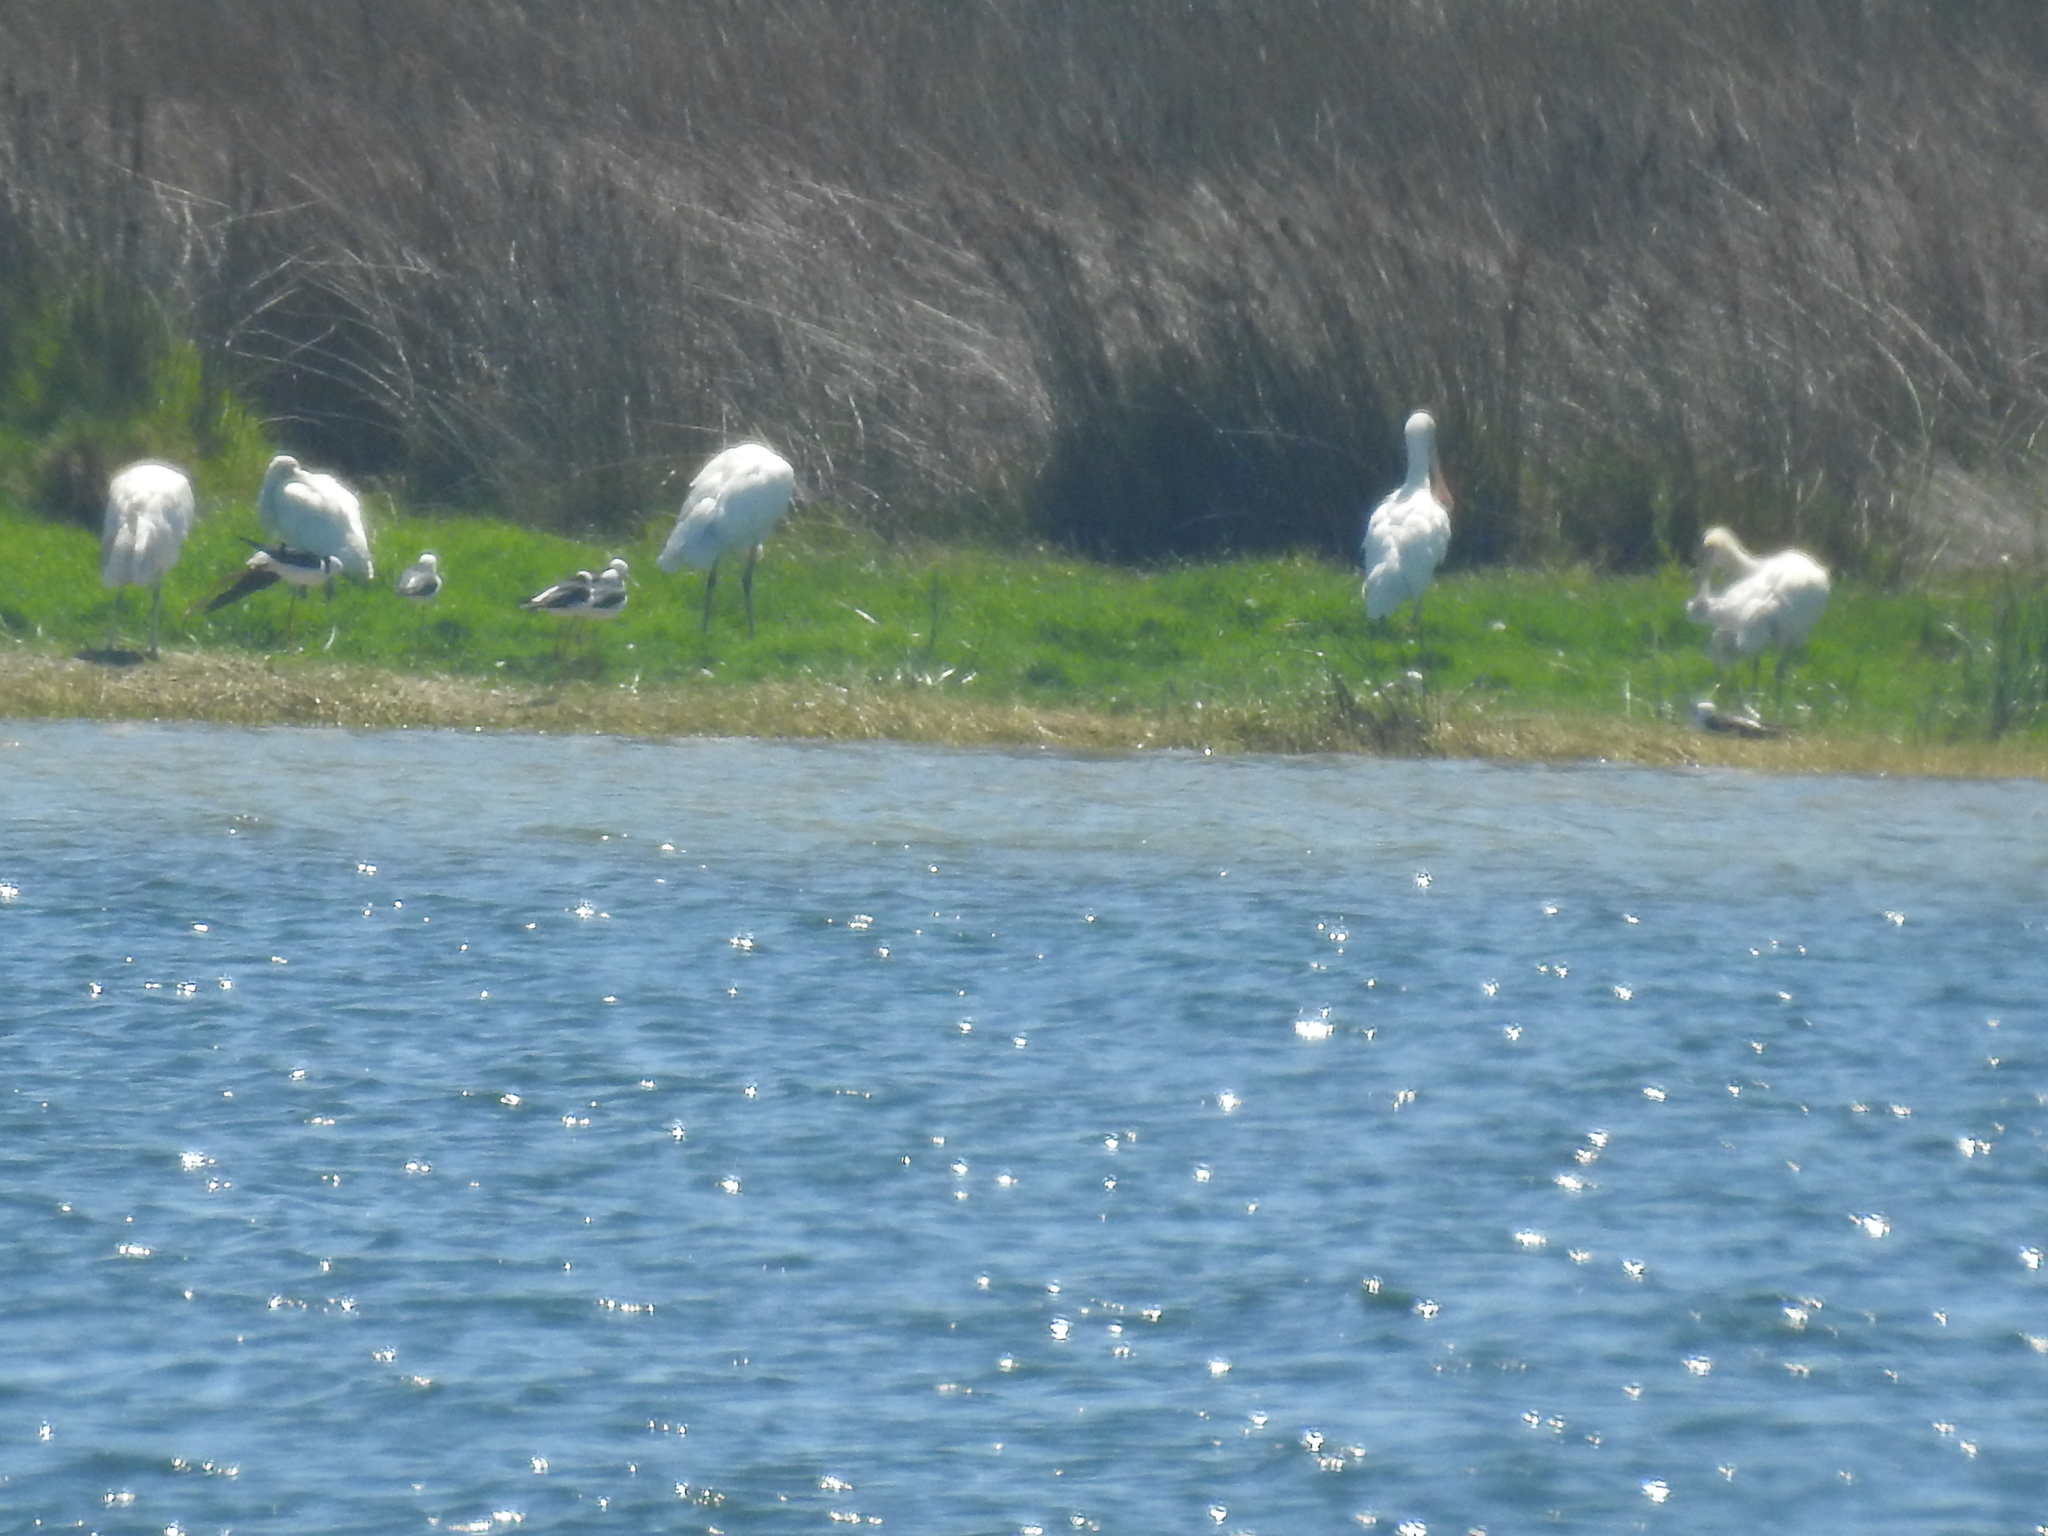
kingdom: Animalia
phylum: Chordata
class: Aves
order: Pelecaniformes
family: Threskiornithidae
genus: Platalea
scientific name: Platalea flavipes
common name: Yellow-billed spoonbill
